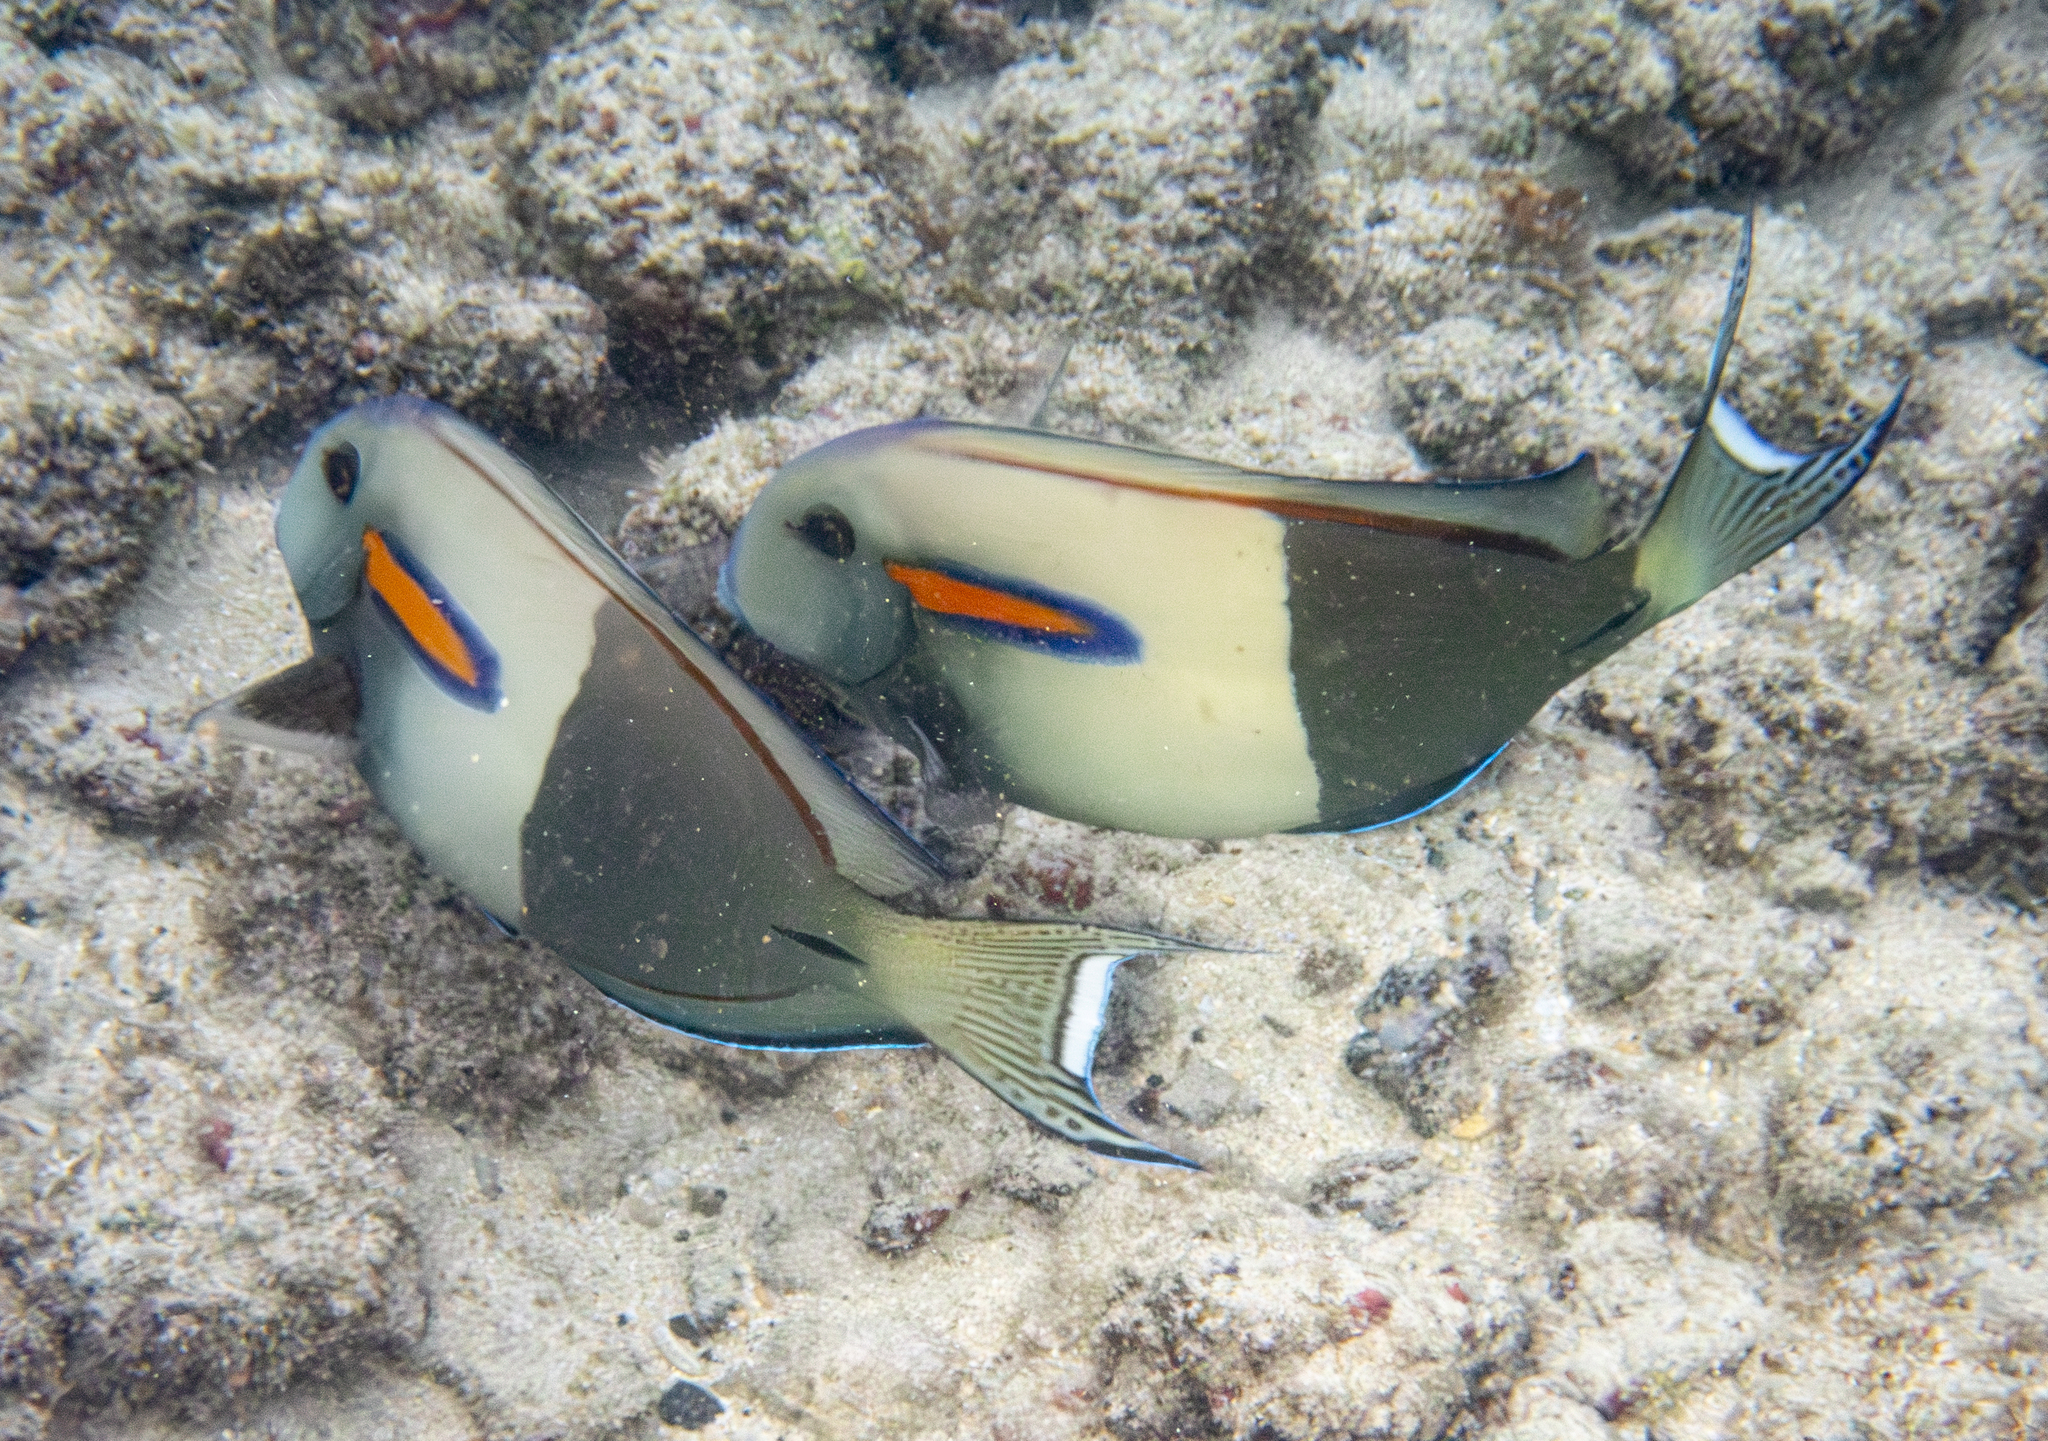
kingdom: Animalia
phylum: Chordata
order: Perciformes
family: Acanthuridae
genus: Acanthurus
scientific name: Acanthurus olivaceus
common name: Gendarme fish
